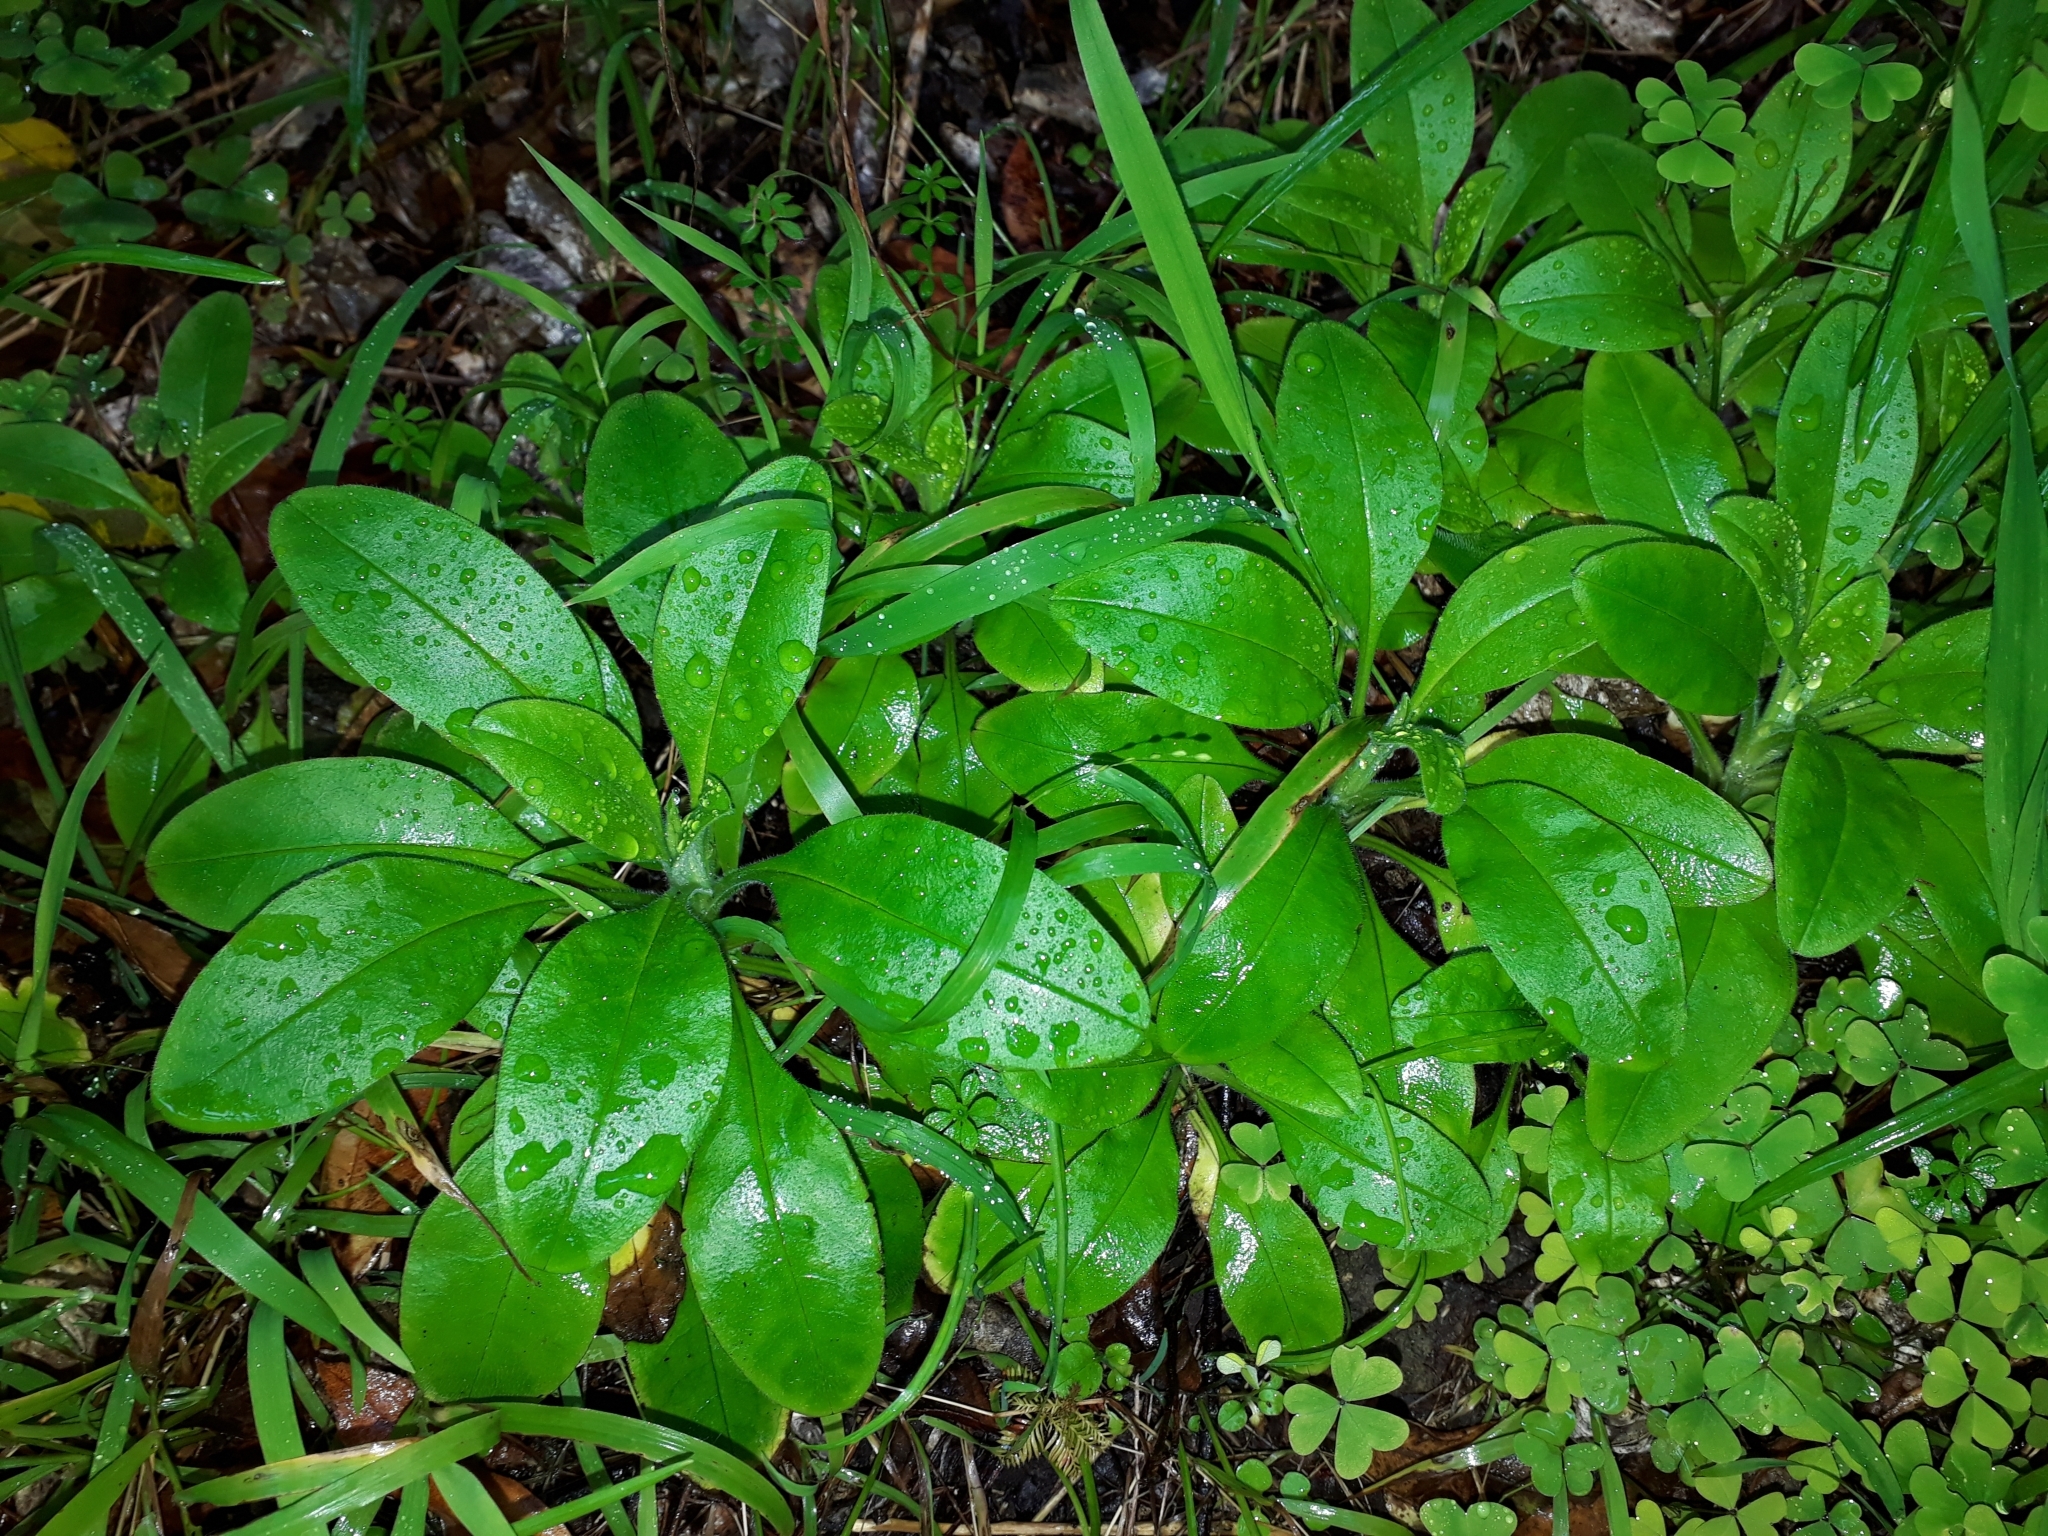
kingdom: Plantae
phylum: Tracheophyta
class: Magnoliopsida
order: Boraginales
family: Boraginaceae
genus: Myosotis
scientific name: Myosotis sylvatica
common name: Wood forget-me-not
